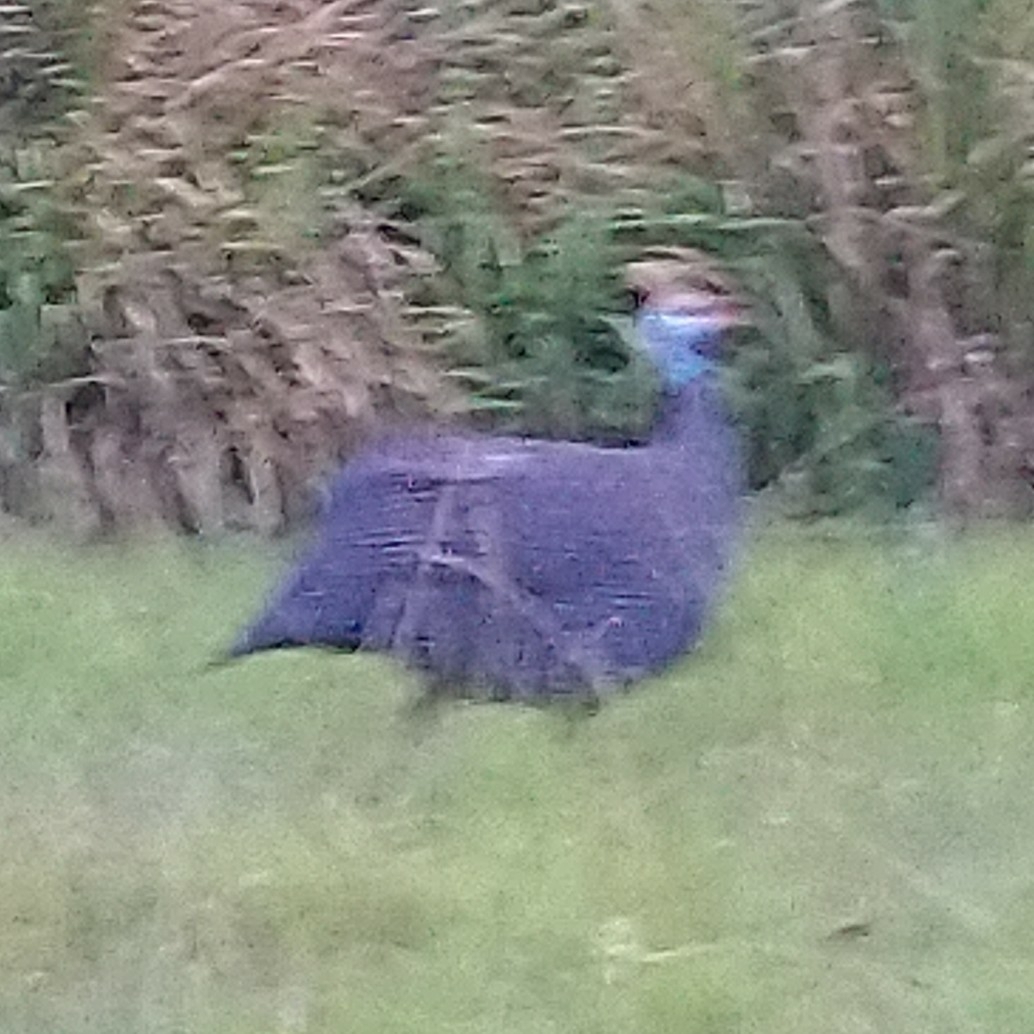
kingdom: Animalia
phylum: Chordata
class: Aves
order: Galliformes
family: Numididae
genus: Numida
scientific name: Numida meleagris
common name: Helmeted guineafowl
